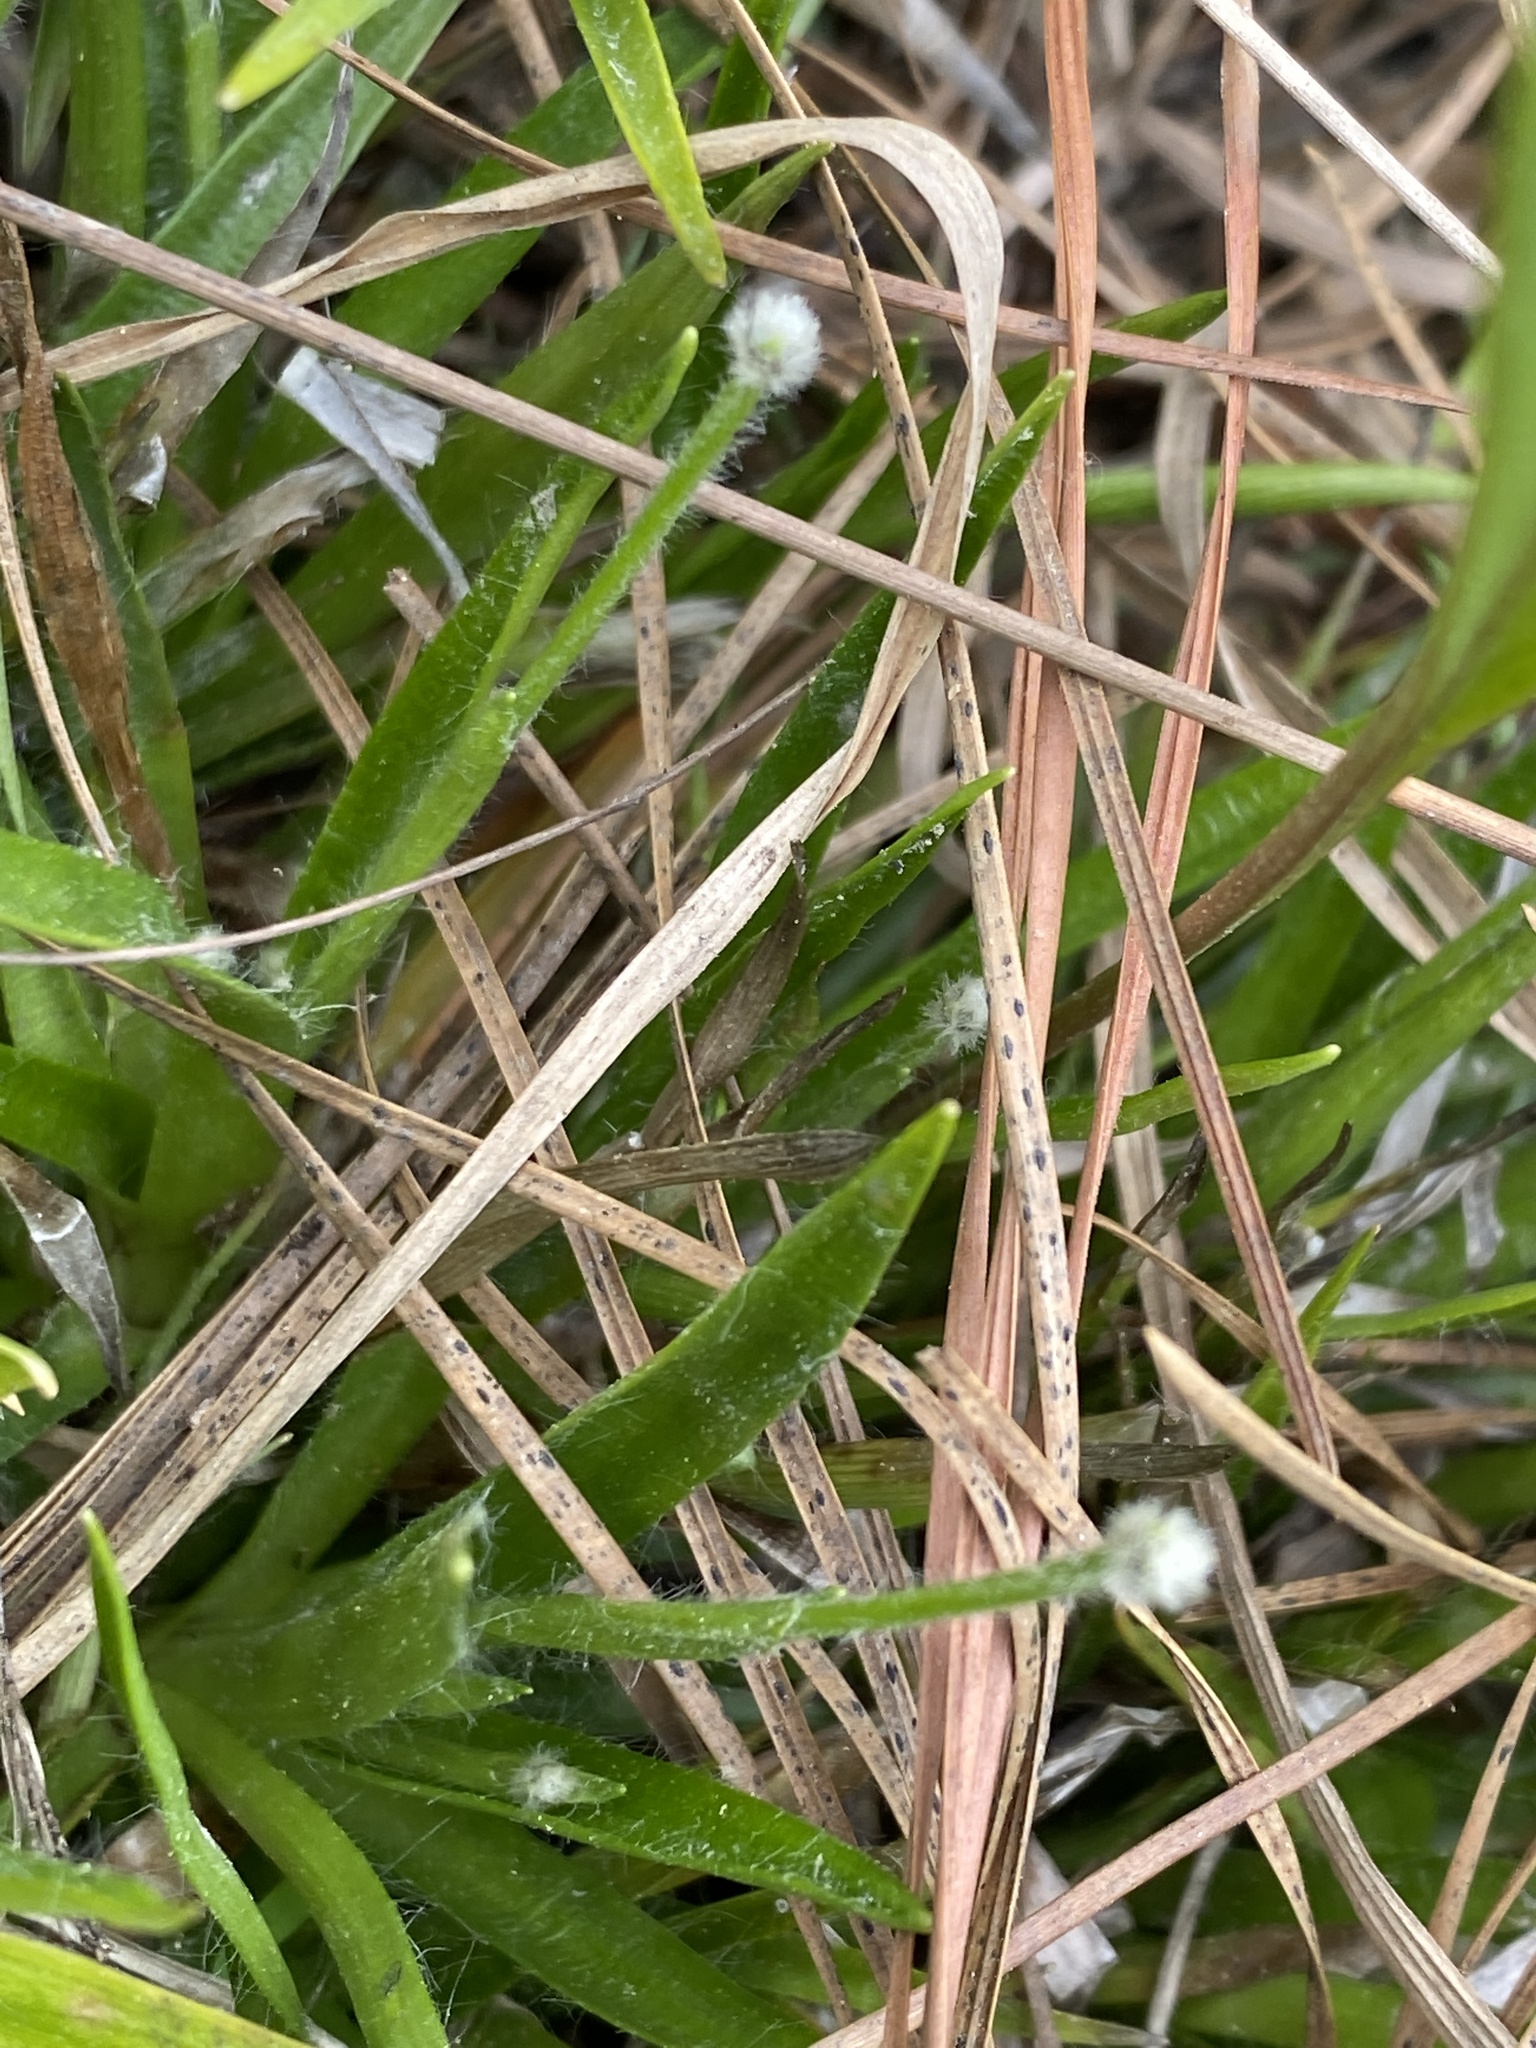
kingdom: Plantae
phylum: Tracheophyta
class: Liliopsida
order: Poales
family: Eriocaulaceae
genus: Paepalanthus
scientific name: Paepalanthus anceps
